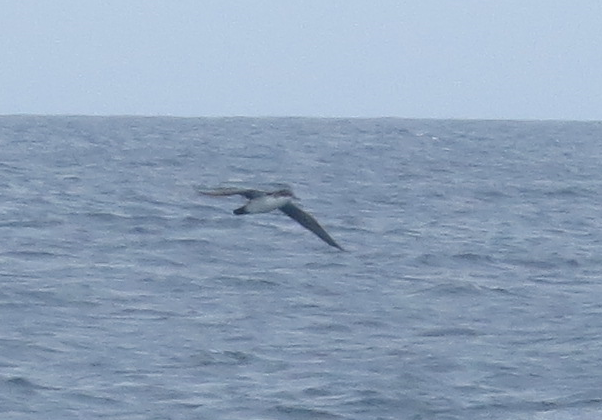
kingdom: Animalia
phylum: Chordata
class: Aves
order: Procellariiformes
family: Procellariidae
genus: Puffinus
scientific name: Puffinus subalaris
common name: Galapagos shearwater
